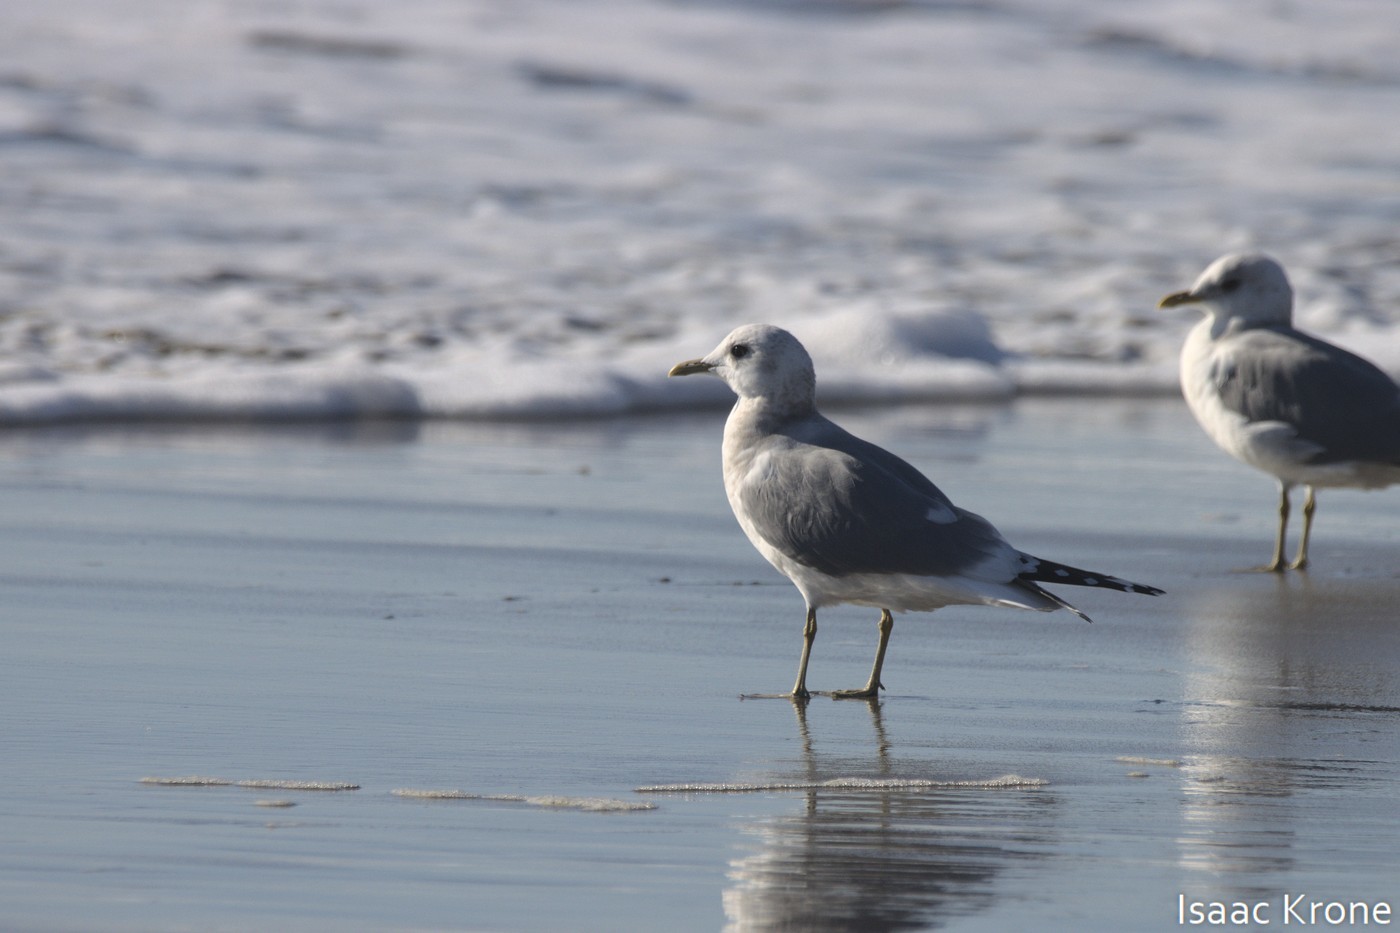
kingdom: Animalia
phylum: Chordata
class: Aves
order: Charadriiformes
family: Laridae
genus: Larus
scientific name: Larus brachyrhynchus
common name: Short-billed gull
